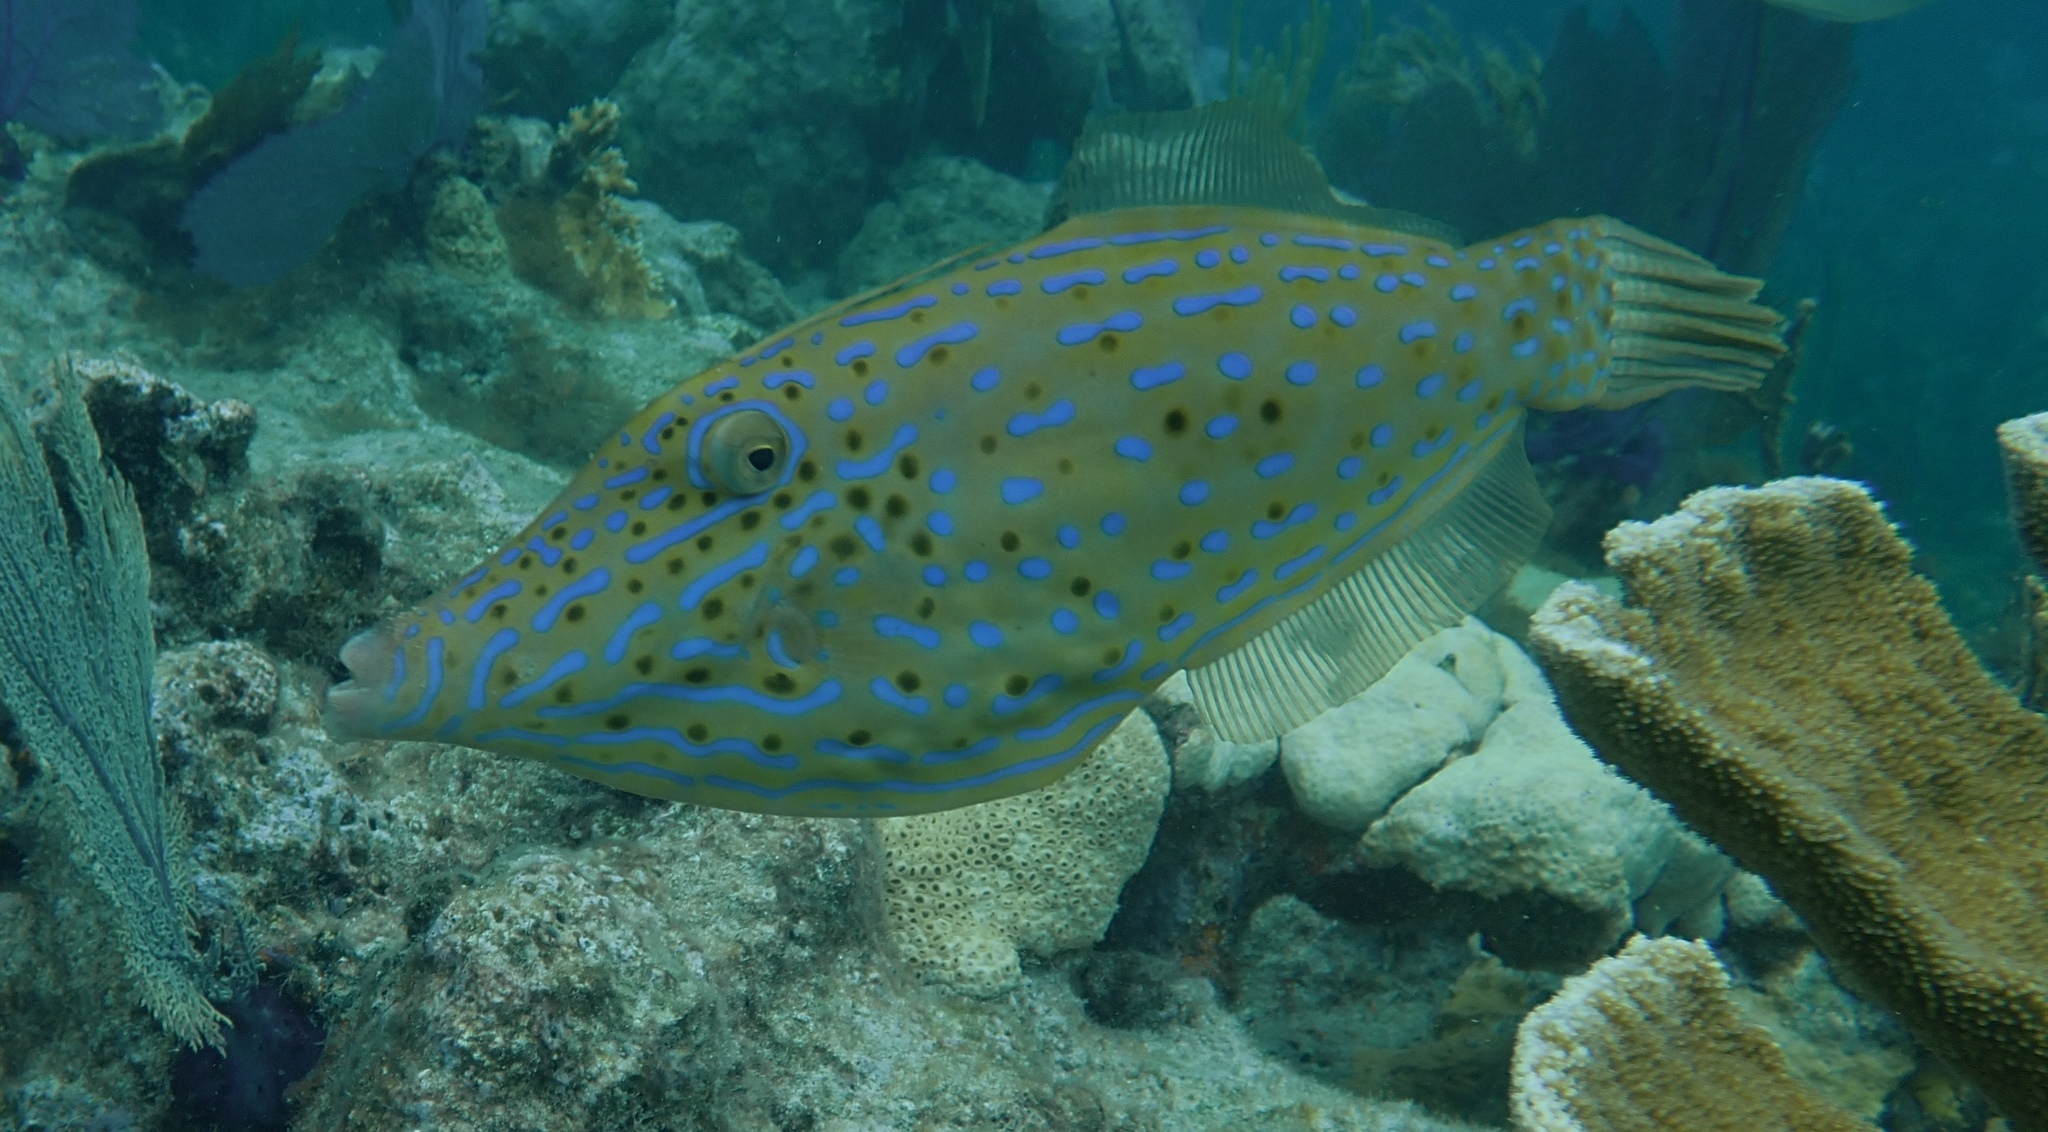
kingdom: Animalia
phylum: Chordata
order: Tetraodontiformes
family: Monacanthidae
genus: Aluterus
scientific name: Aluterus scriptus
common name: Scribbled leatherjacket filefish
